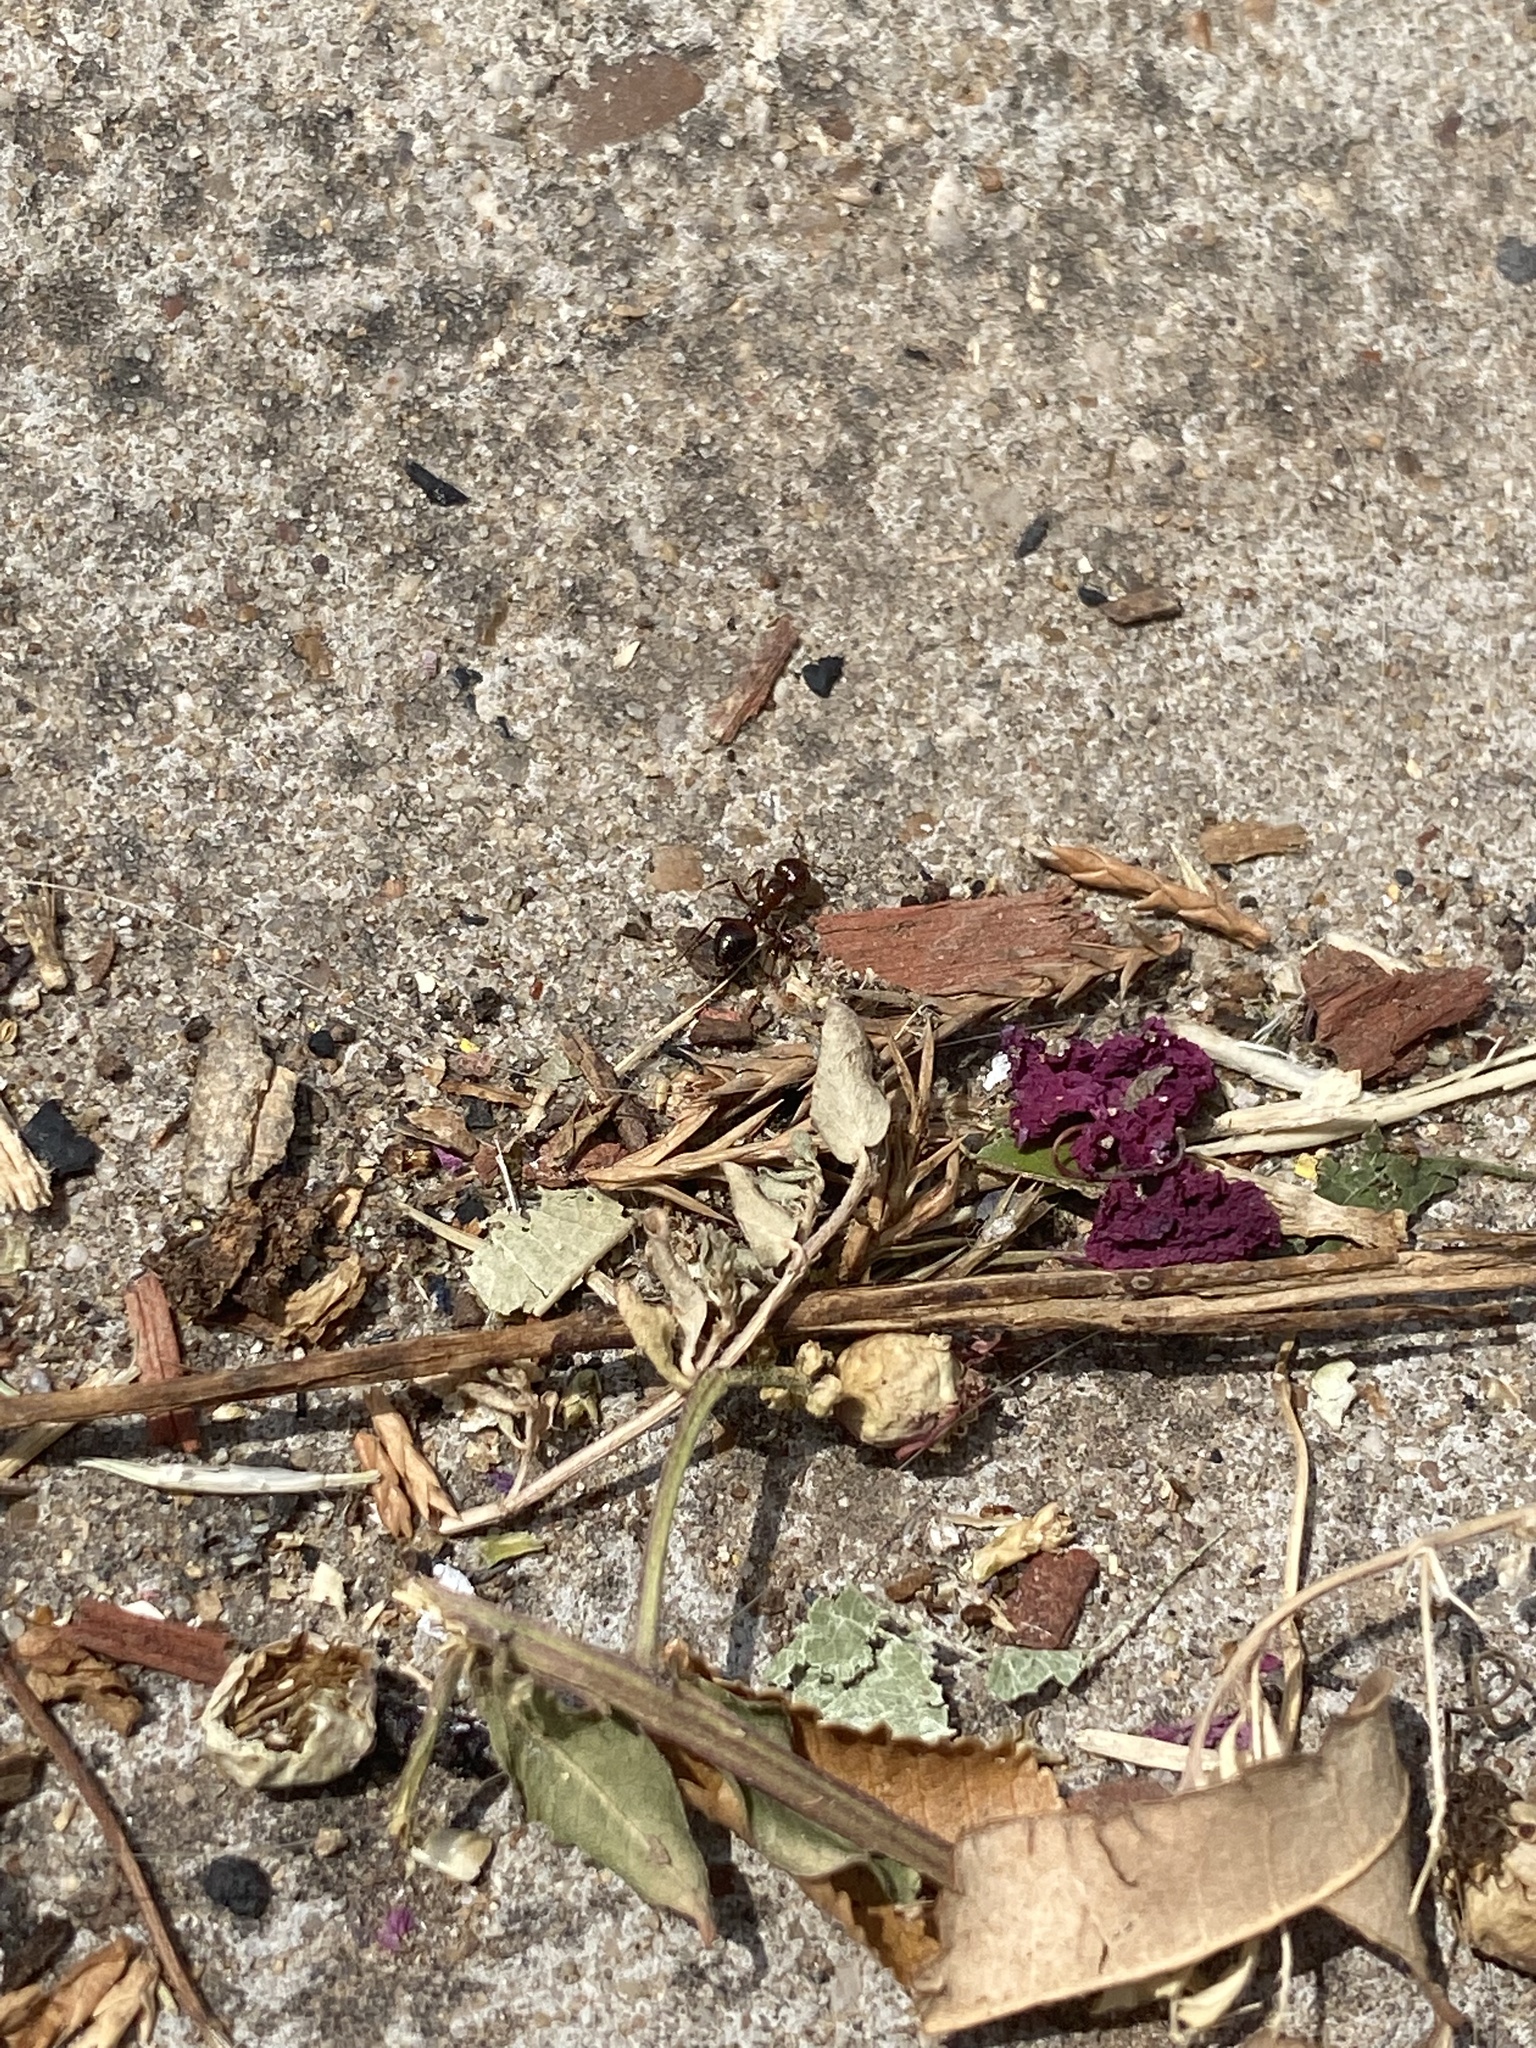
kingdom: Animalia
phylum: Arthropoda
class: Insecta
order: Hymenoptera
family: Formicidae
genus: Solenopsis
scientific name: Solenopsis invicta
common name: Red imported fire ant
